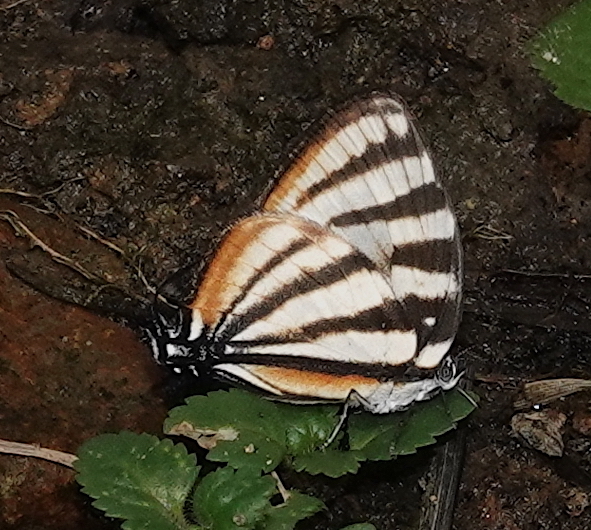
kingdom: Animalia
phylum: Arthropoda
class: Insecta
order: Lepidoptera
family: Lycaenidae
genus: Arawacus
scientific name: Arawacus lincoides
